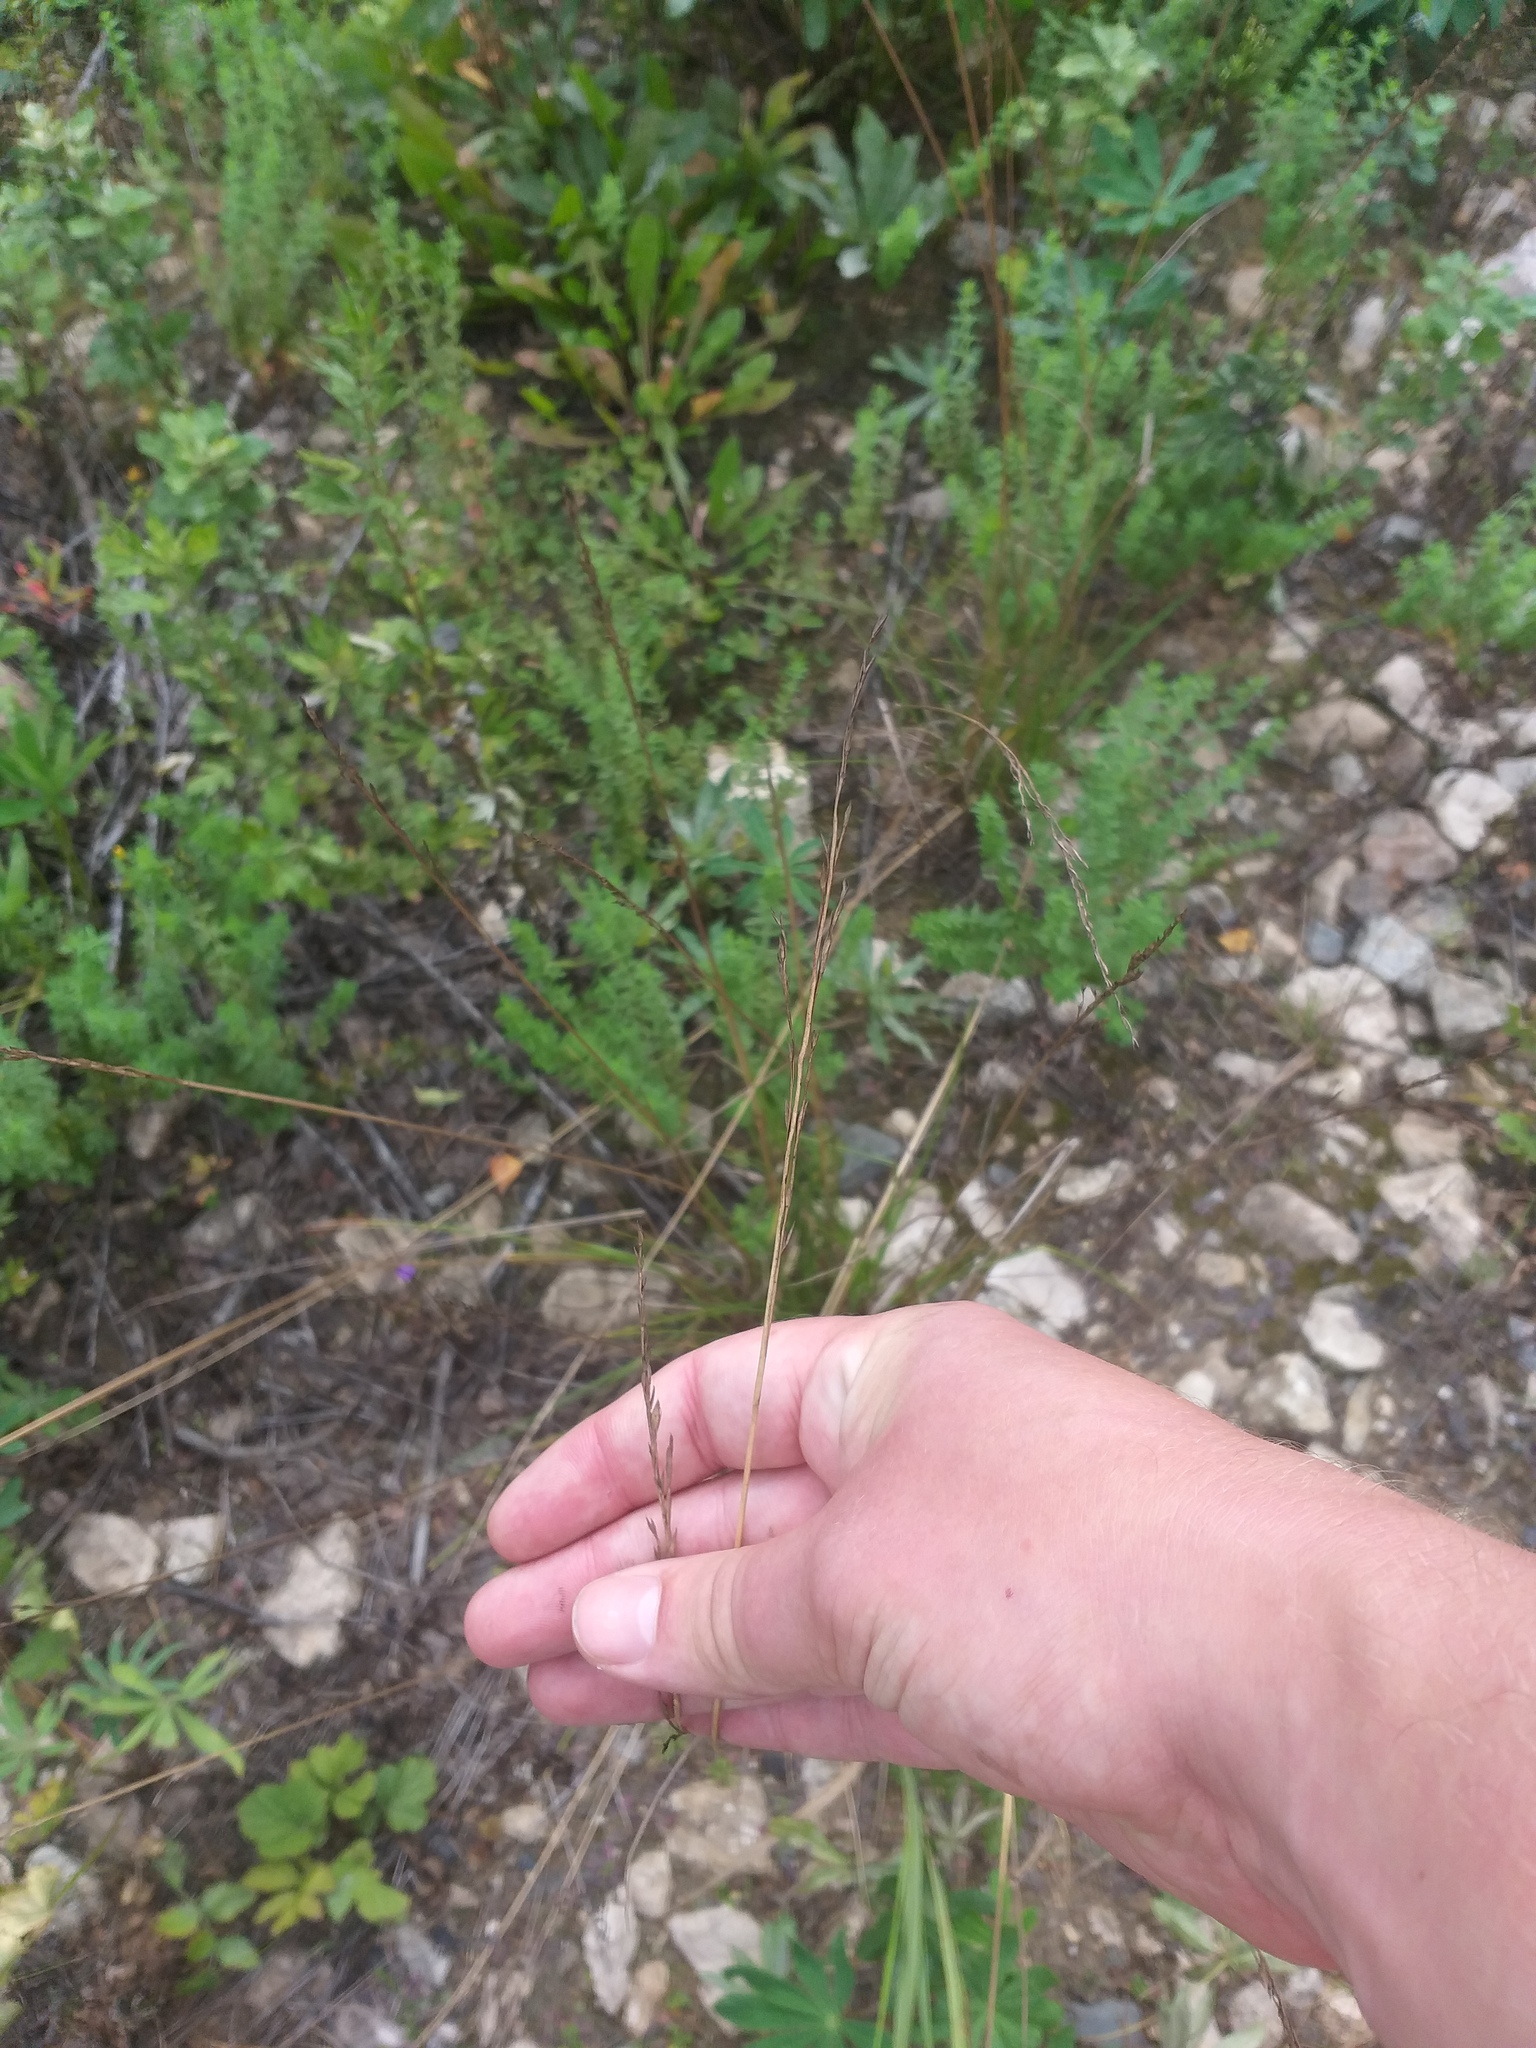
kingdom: Plantae
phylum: Tracheophyta
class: Liliopsida
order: Poales
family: Poaceae
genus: Lolium
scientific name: Lolium pratense
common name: Dover grass
